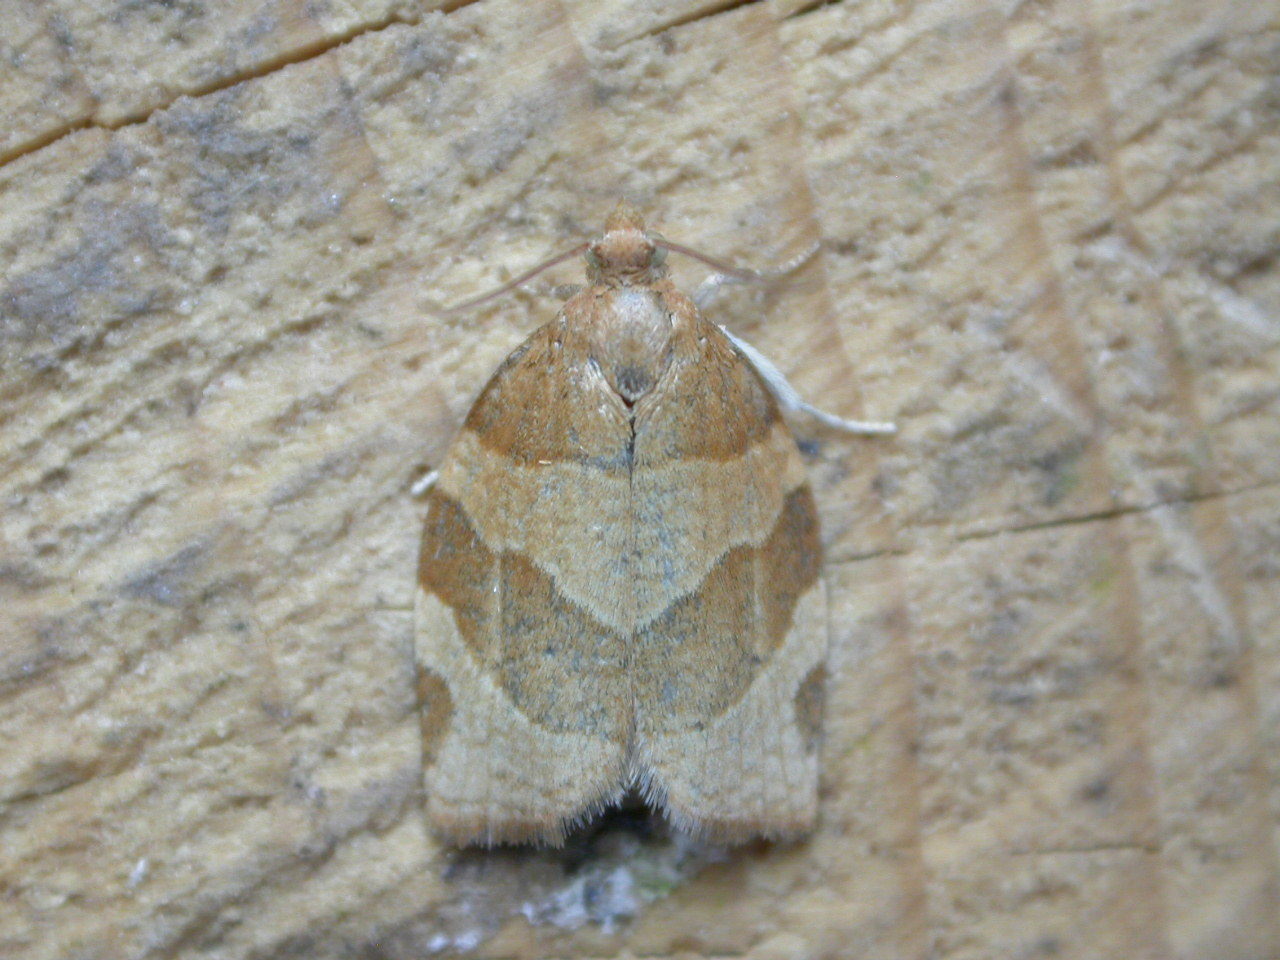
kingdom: Animalia
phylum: Arthropoda
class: Insecta
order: Lepidoptera
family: Tortricidae
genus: Pandemis
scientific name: Pandemis cerasana
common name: Barred fruit-tree tortrix
